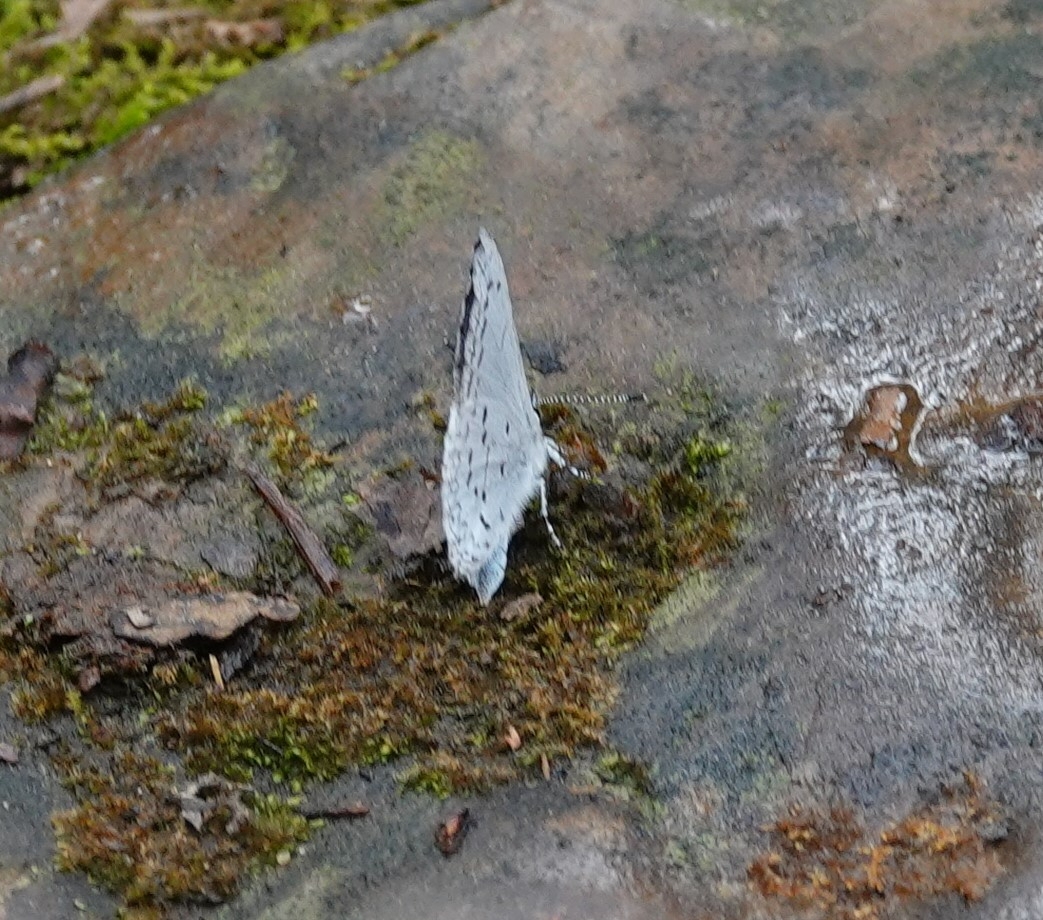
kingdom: Animalia
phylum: Arthropoda
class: Insecta
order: Lepidoptera
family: Lycaenidae
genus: Celastrina
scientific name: Celastrina ladon
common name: Spring azure
